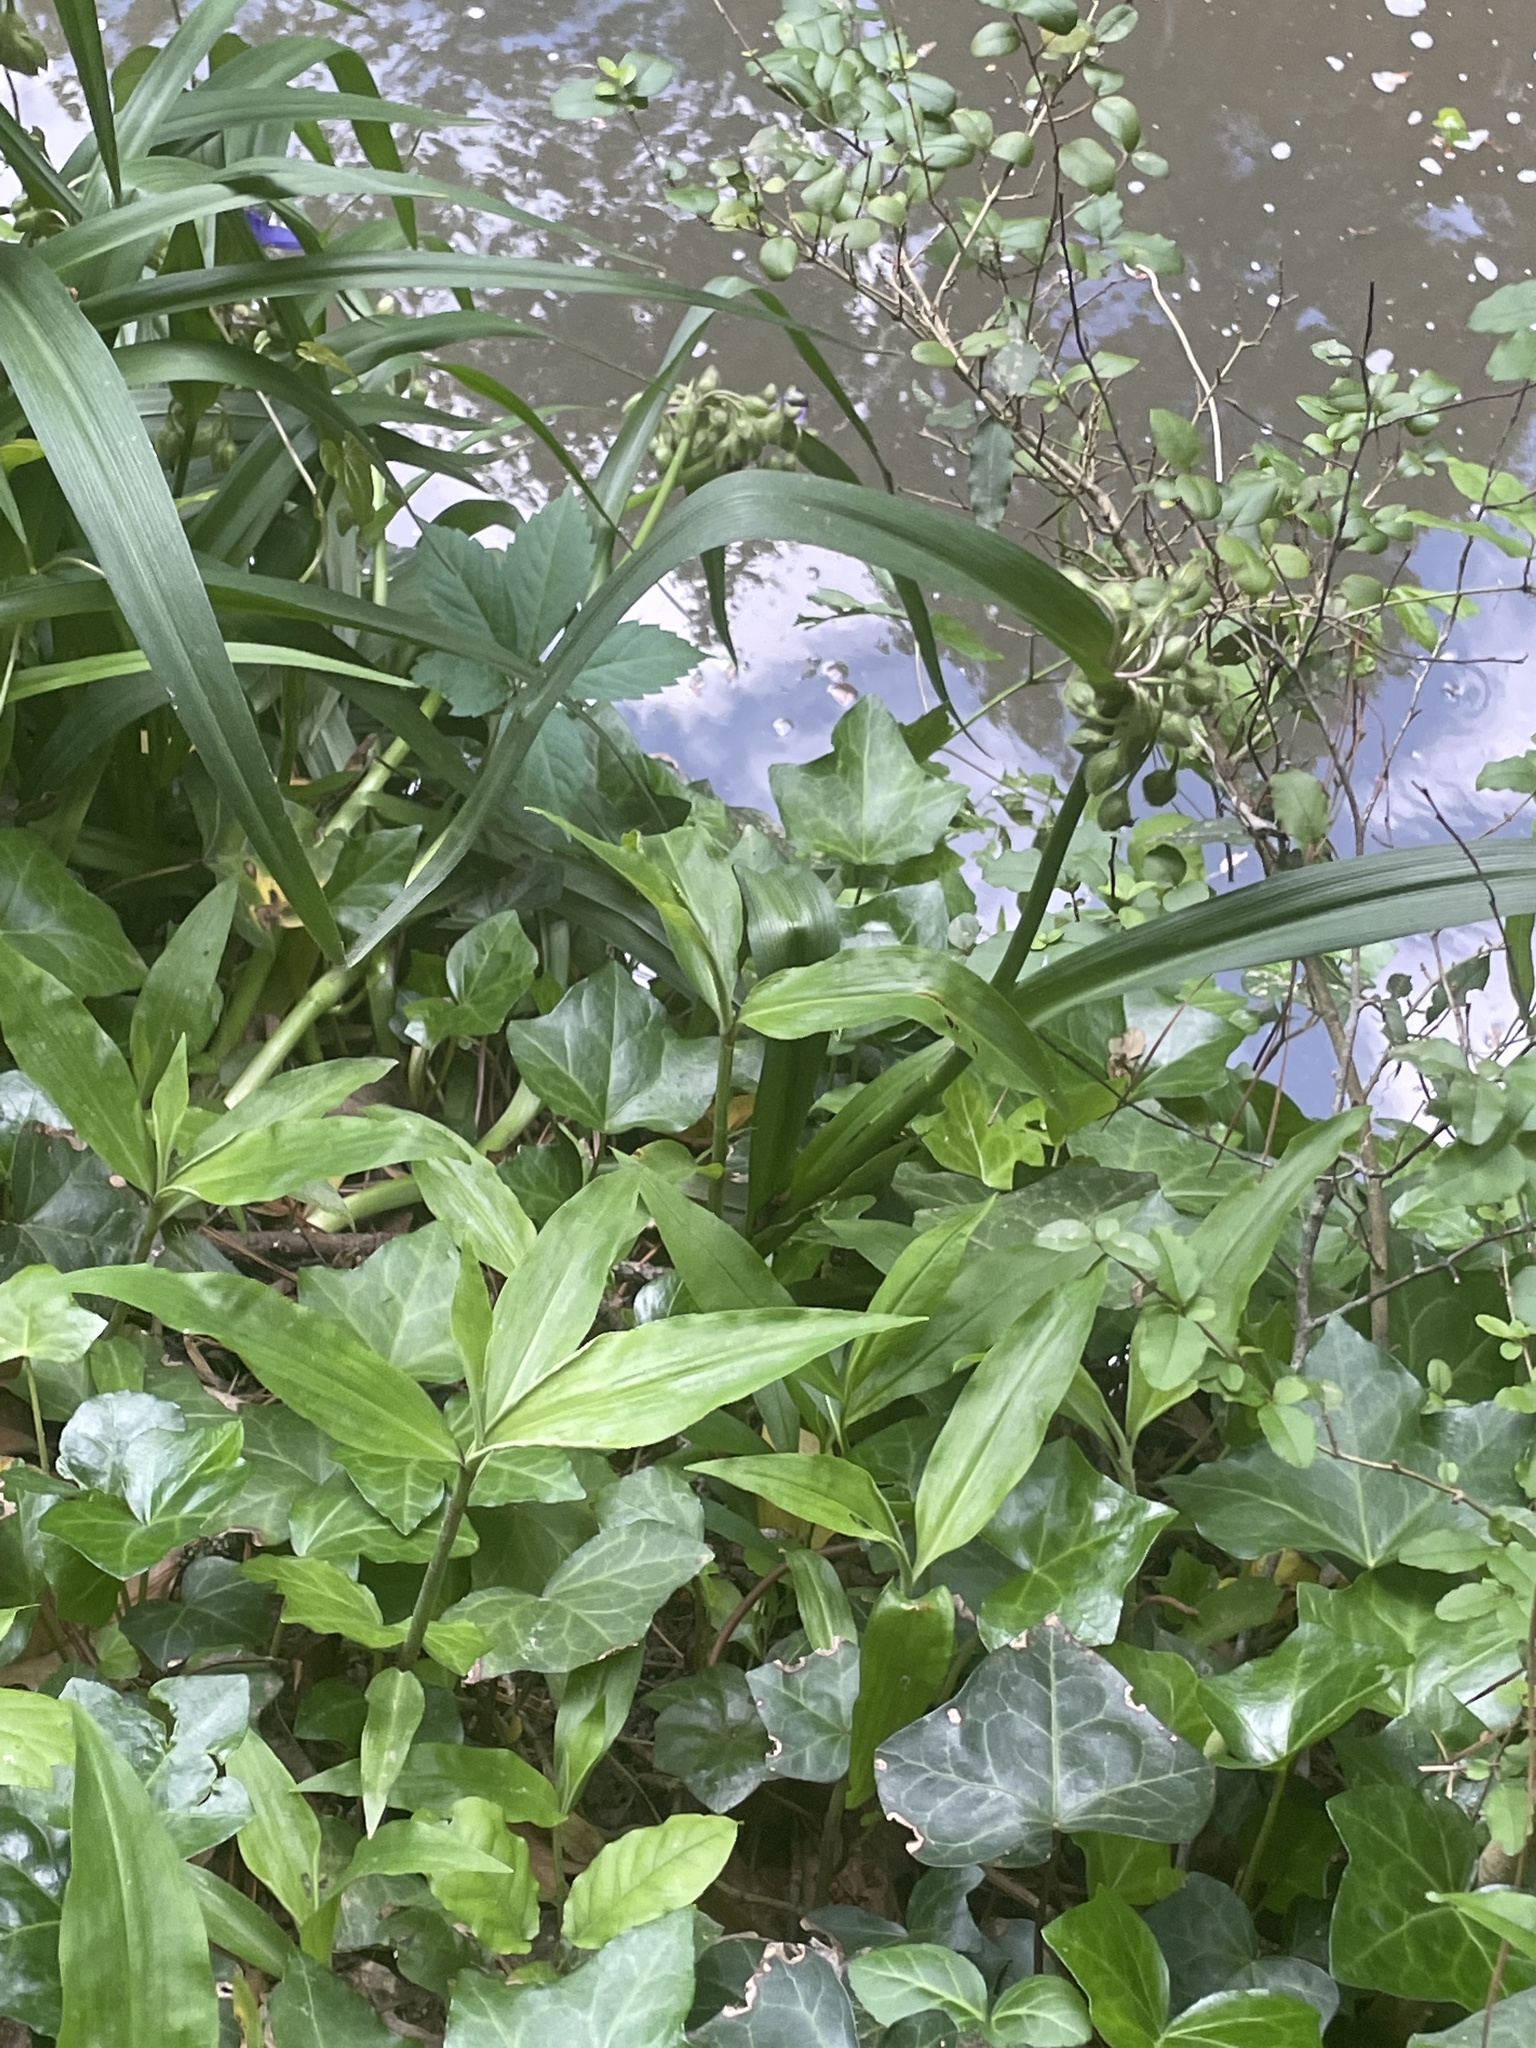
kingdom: Plantae
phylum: Tracheophyta
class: Liliopsida
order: Commelinales
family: Commelinaceae
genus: Commelina
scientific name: Commelina virginica
